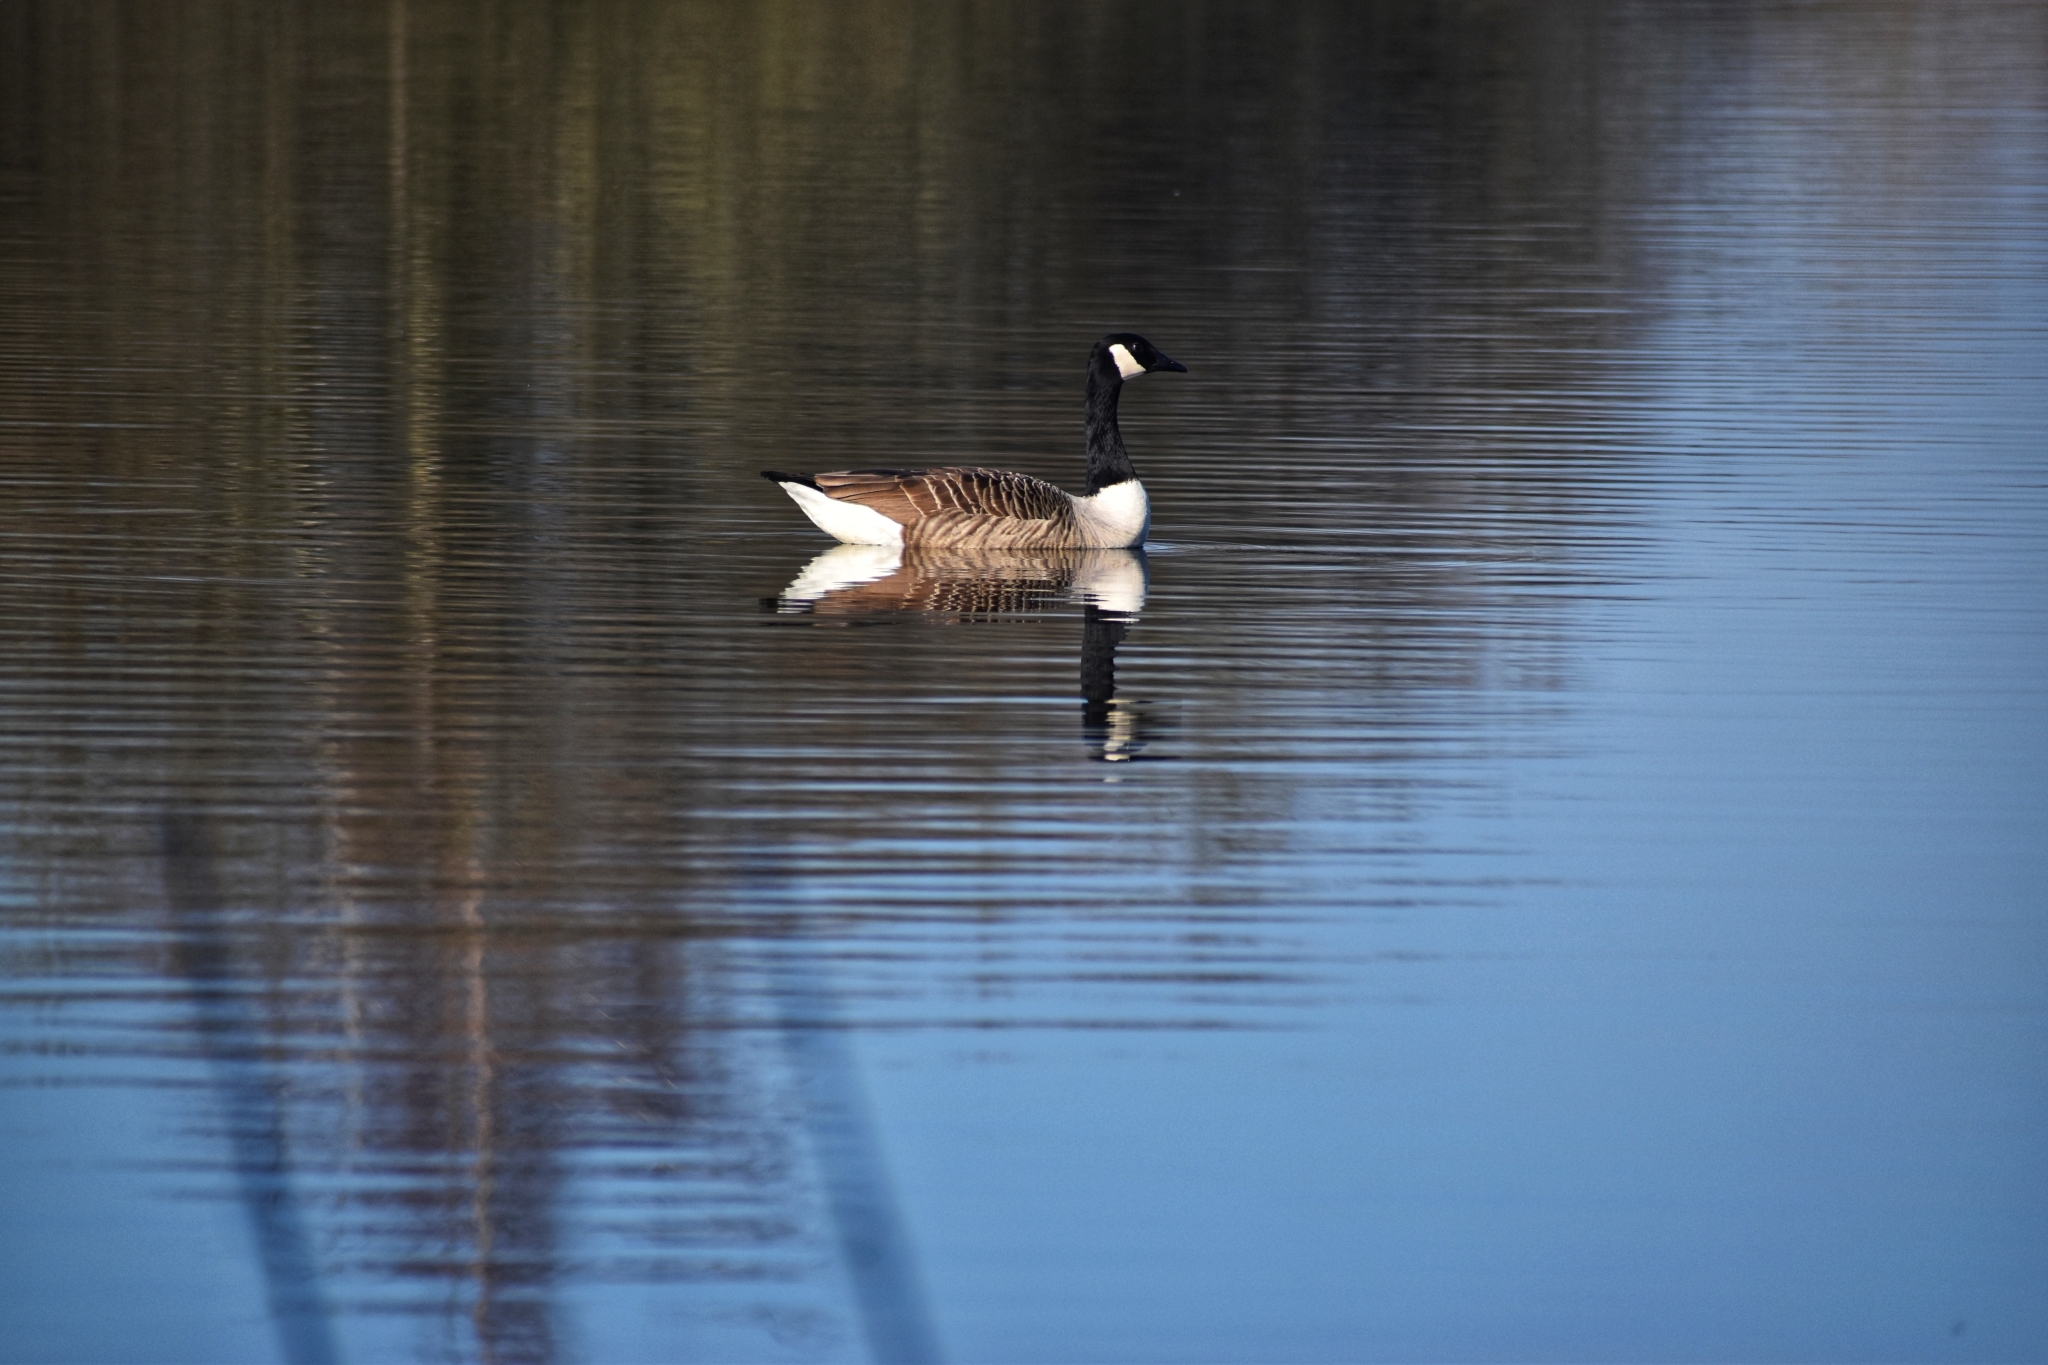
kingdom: Animalia
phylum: Chordata
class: Aves
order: Anseriformes
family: Anatidae
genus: Branta
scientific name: Branta canadensis
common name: Canada goose
